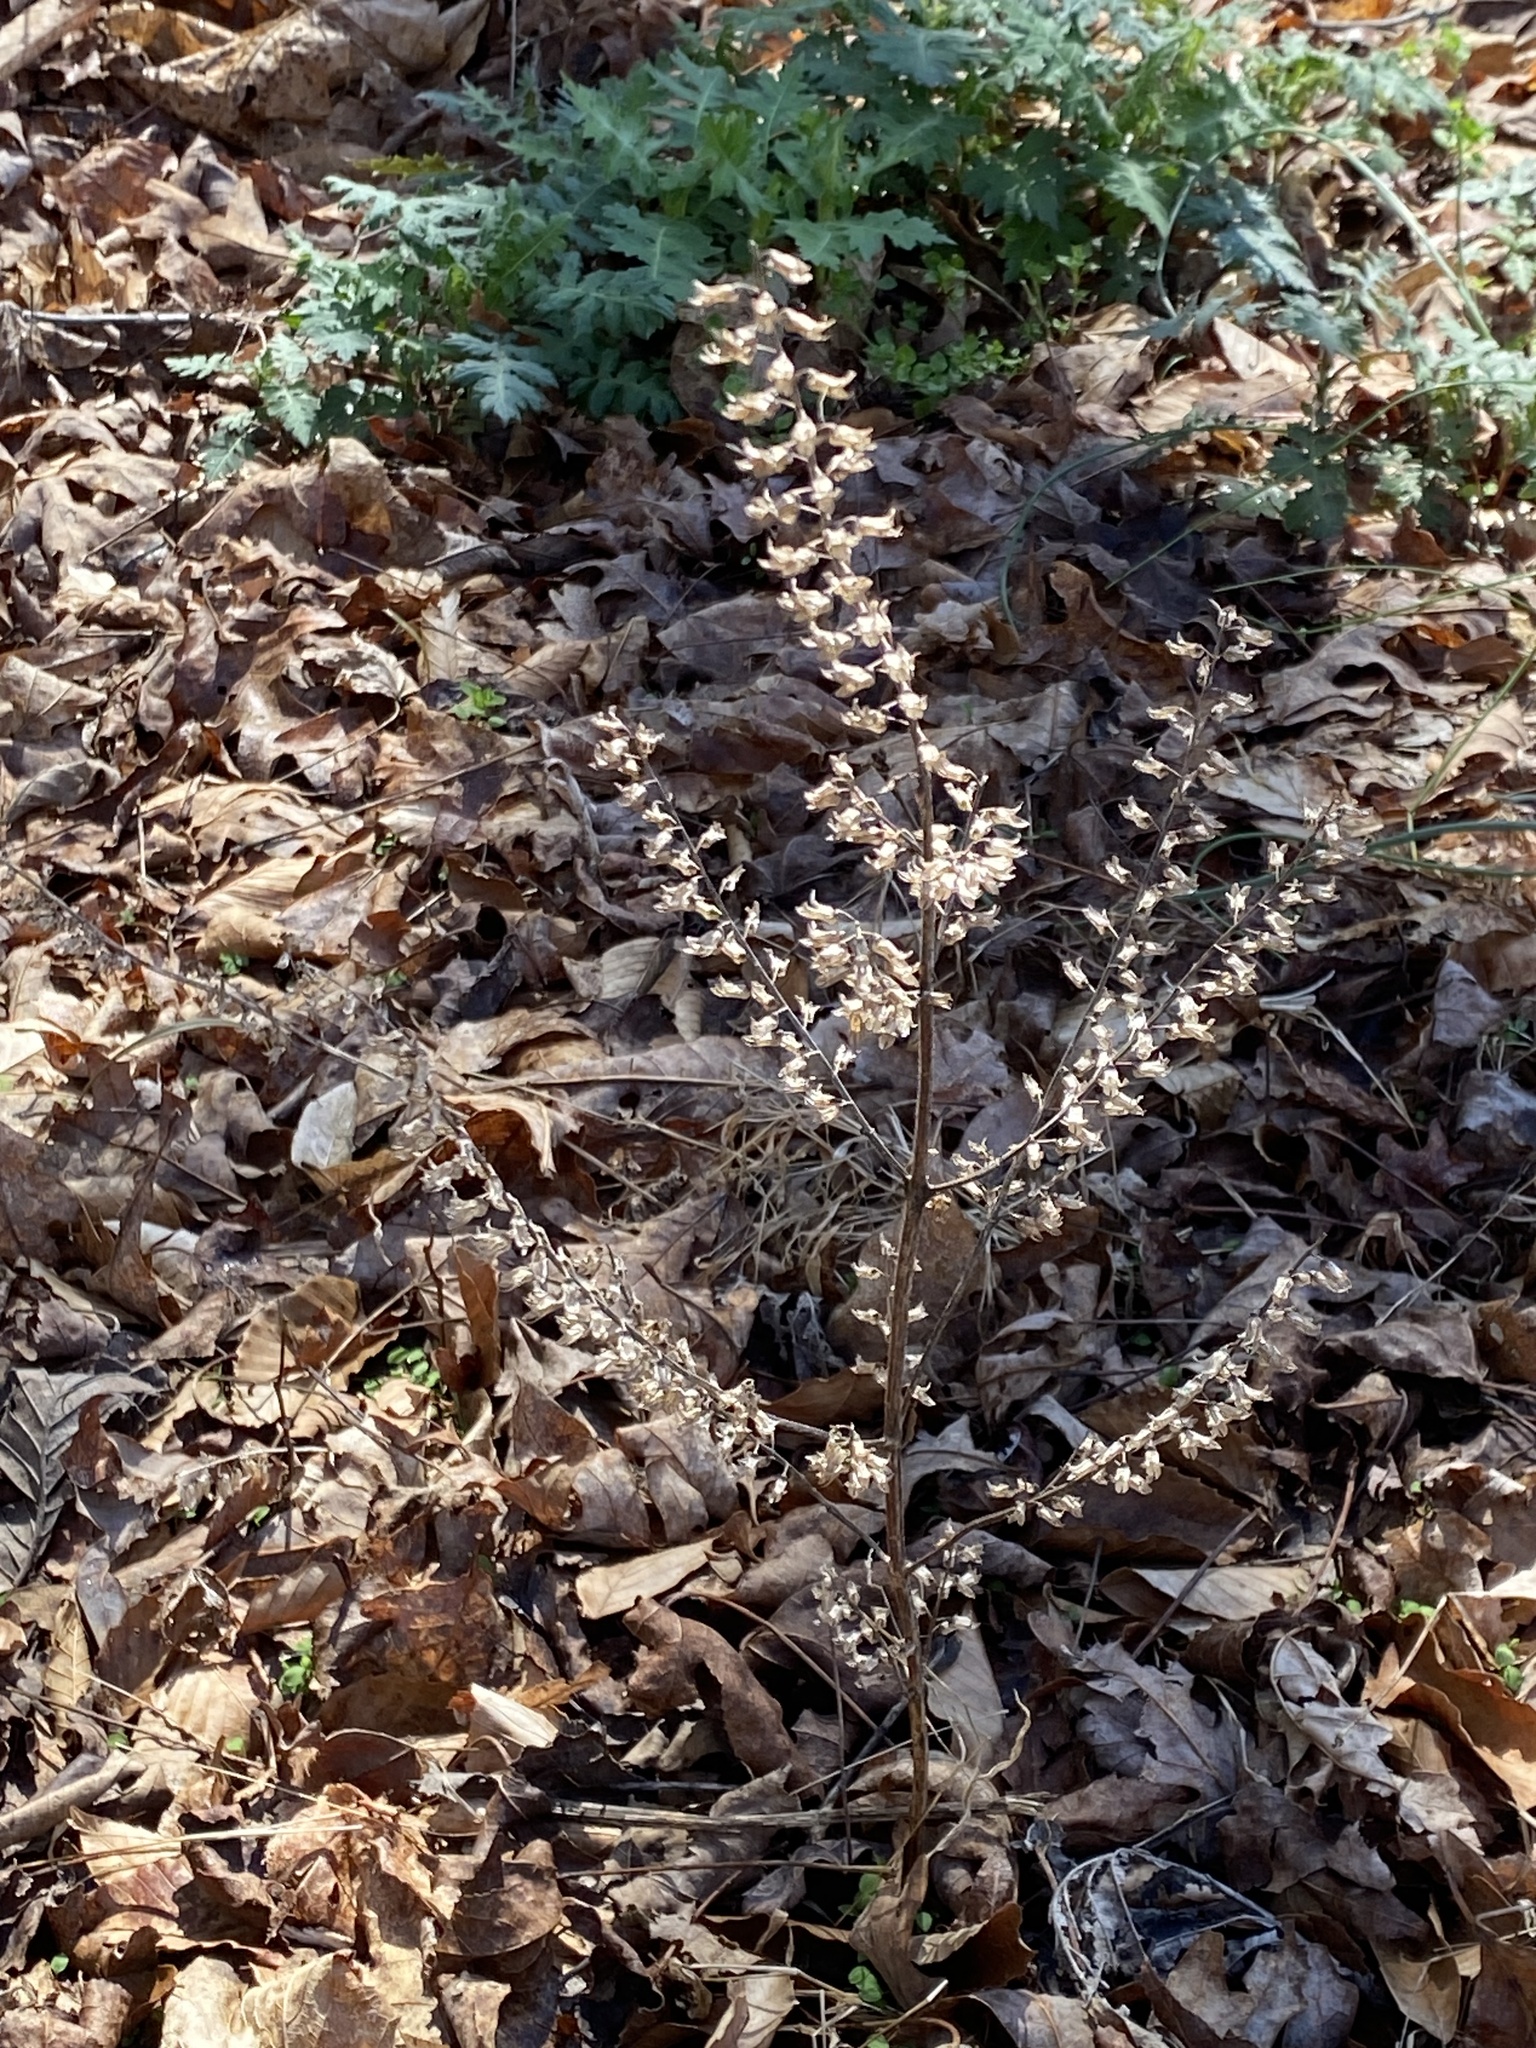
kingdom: Plantae
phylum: Tracheophyta
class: Magnoliopsida
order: Lamiales
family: Lamiaceae
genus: Perilla
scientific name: Perilla frutescens
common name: Perilla
